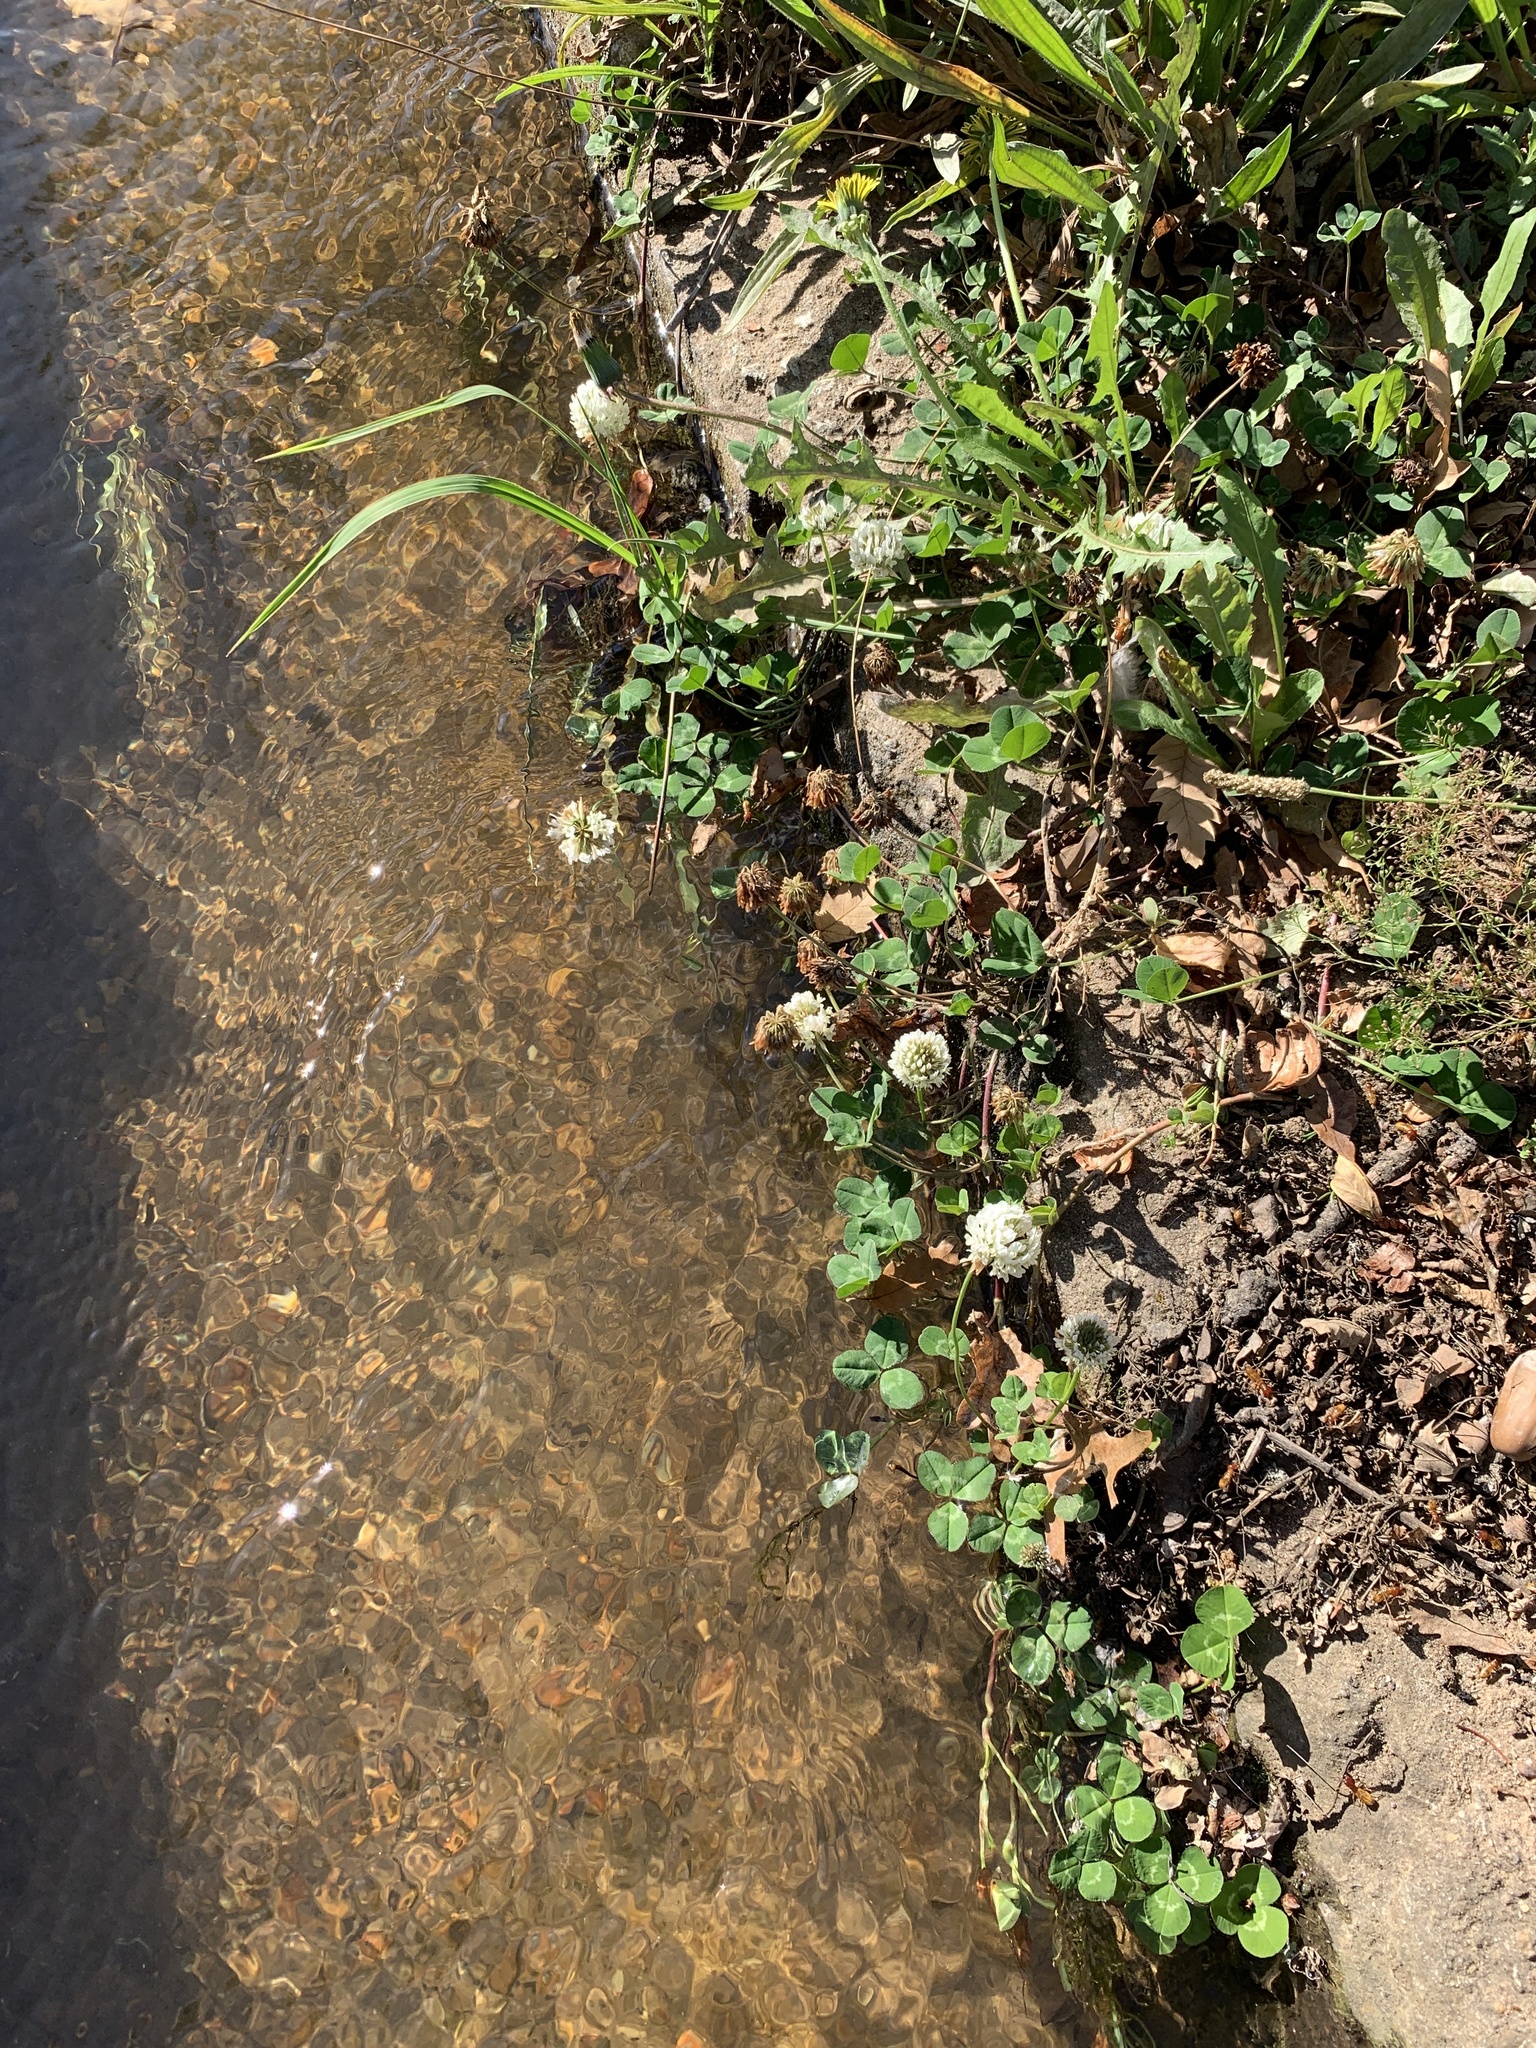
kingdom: Plantae
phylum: Tracheophyta
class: Magnoliopsida
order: Fabales
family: Fabaceae
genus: Trifolium
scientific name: Trifolium repens
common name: White clover
